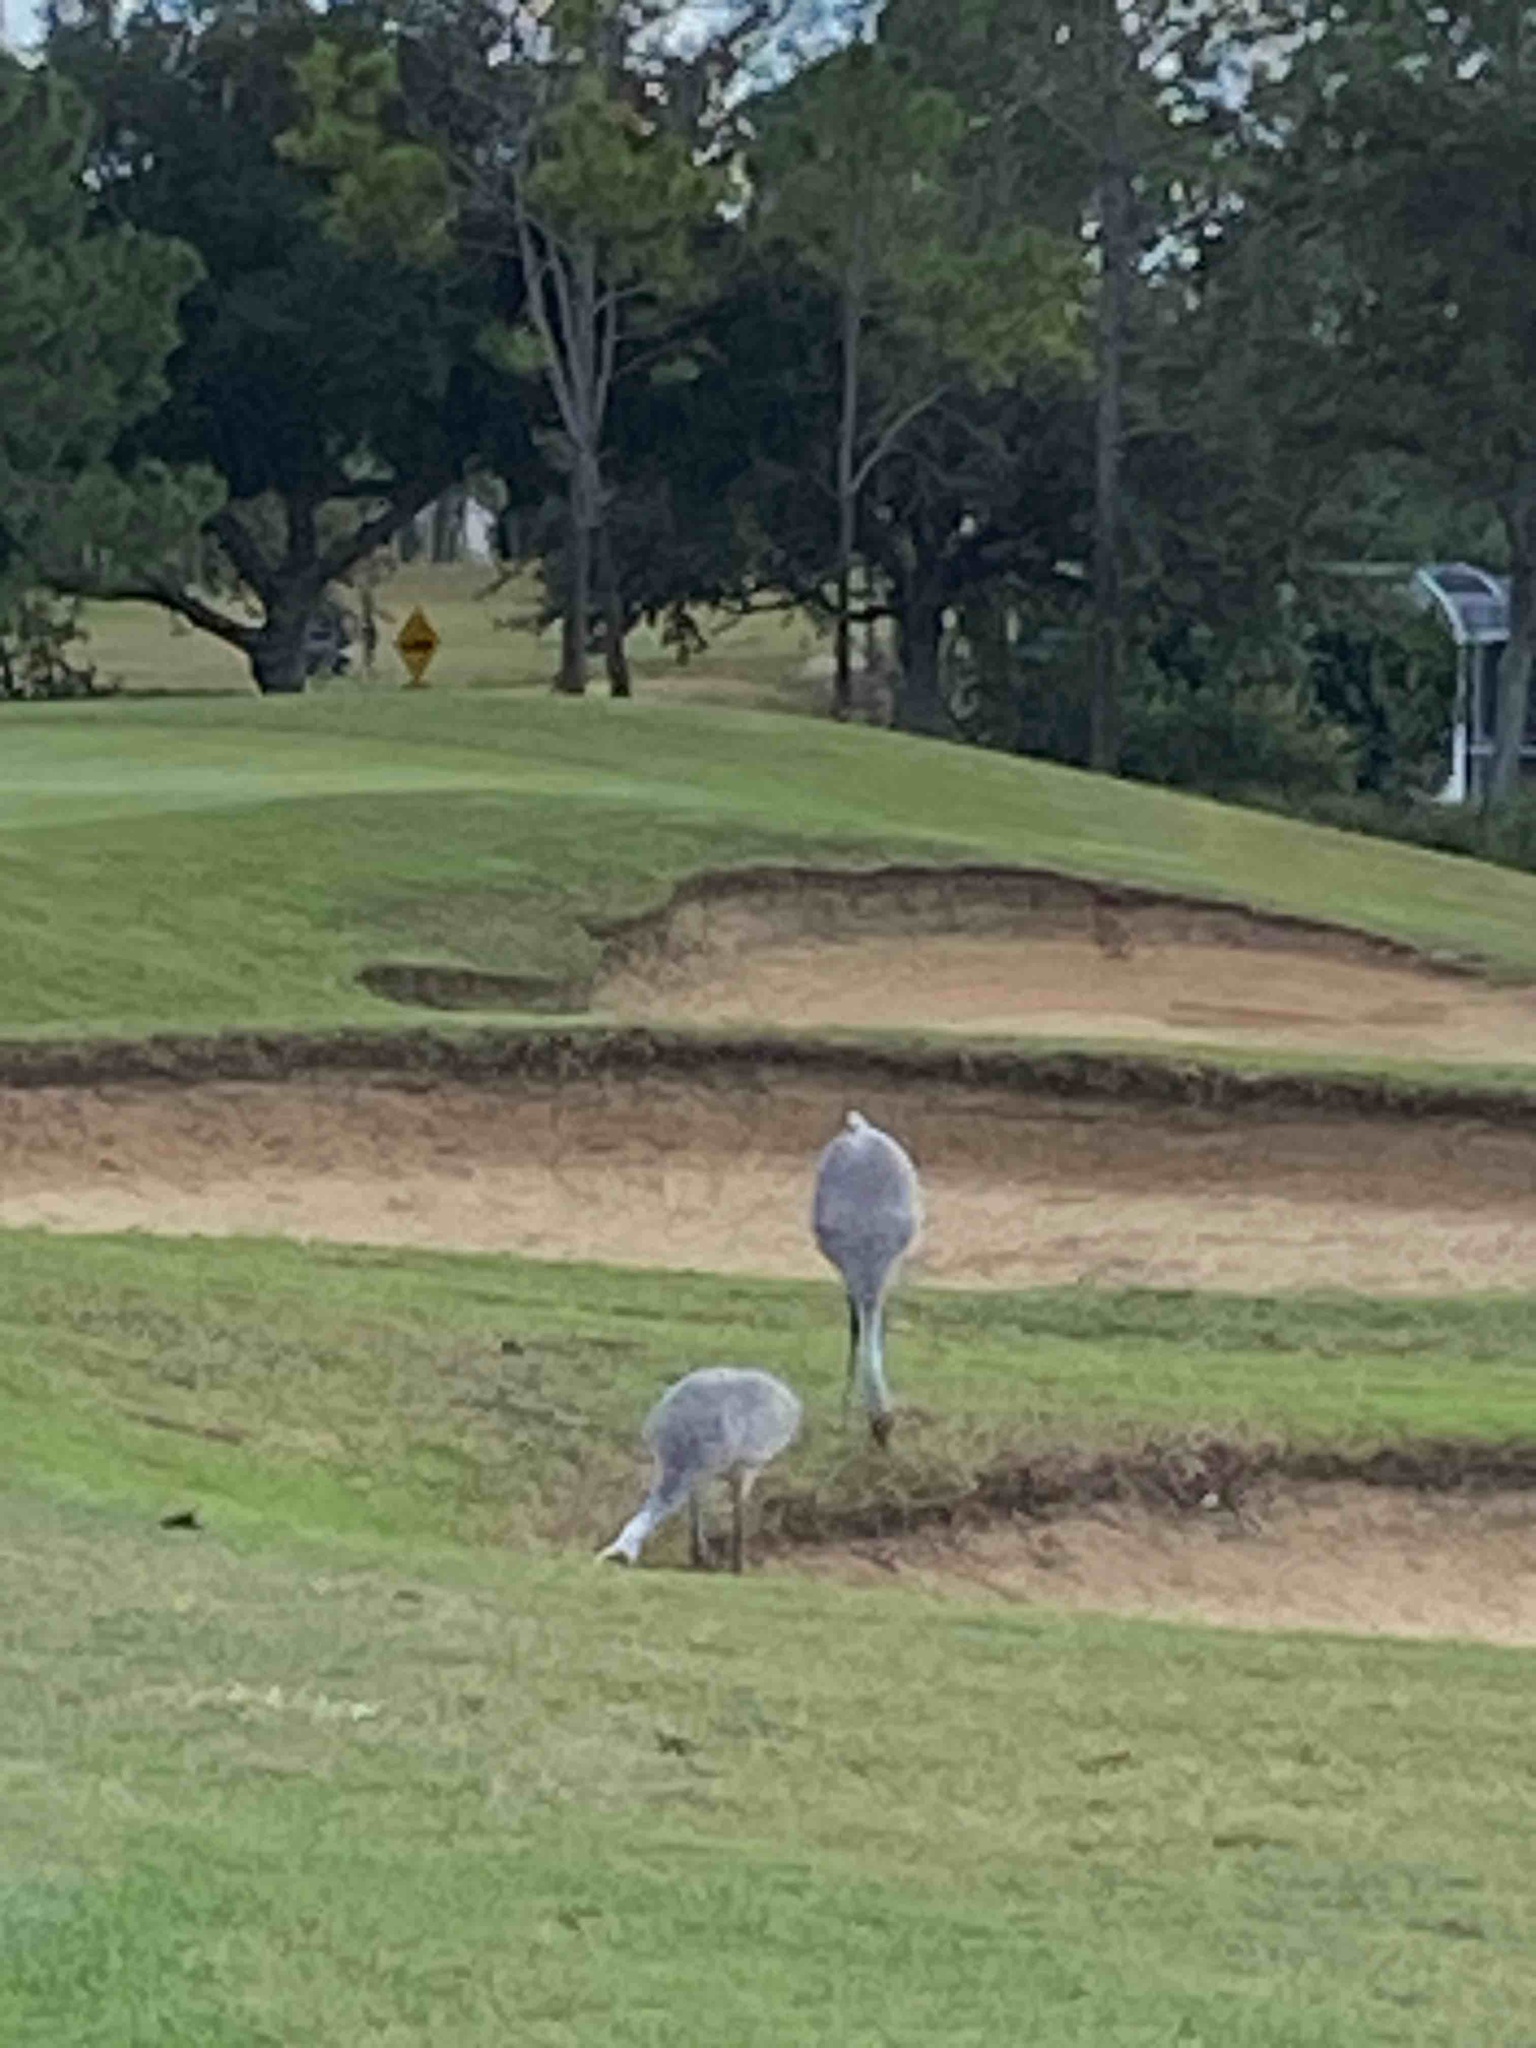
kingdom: Animalia
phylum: Chordata
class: Aves
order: Gruiformes
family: Gruidae
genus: Grus
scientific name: Grus canadensis
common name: Sandhill crane
